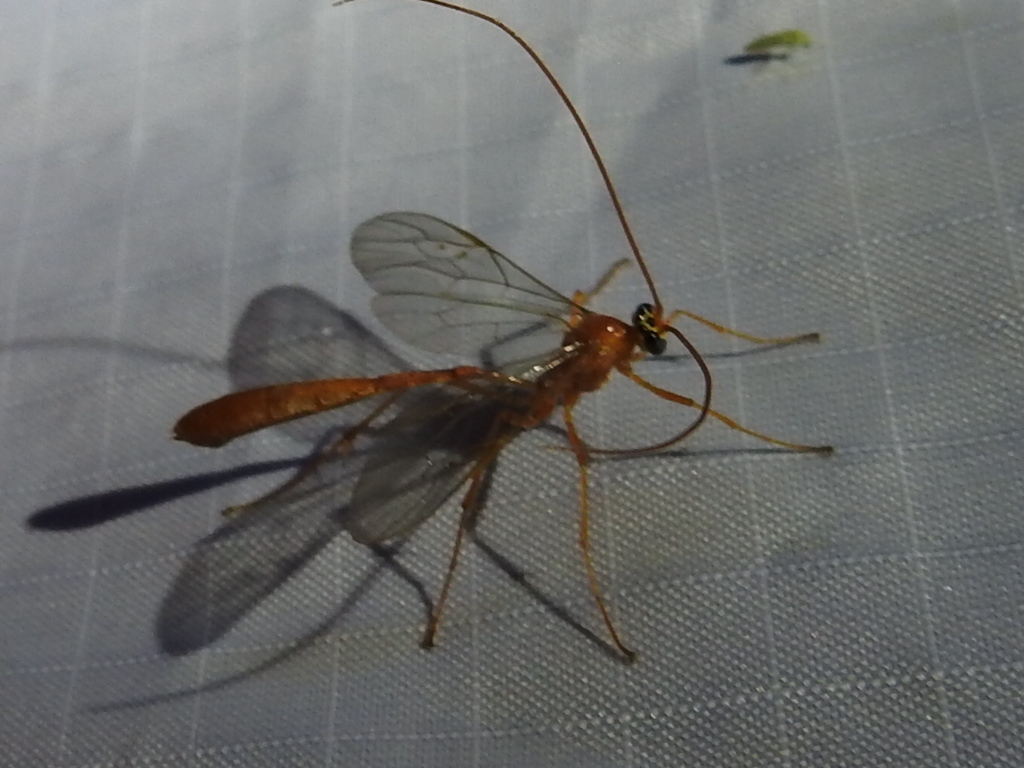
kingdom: Animalia
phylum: Arthropoda
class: Insecta
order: Hymenoptera
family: Ichneumonidae
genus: Enicospilus
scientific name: Enicospilus purgatus
